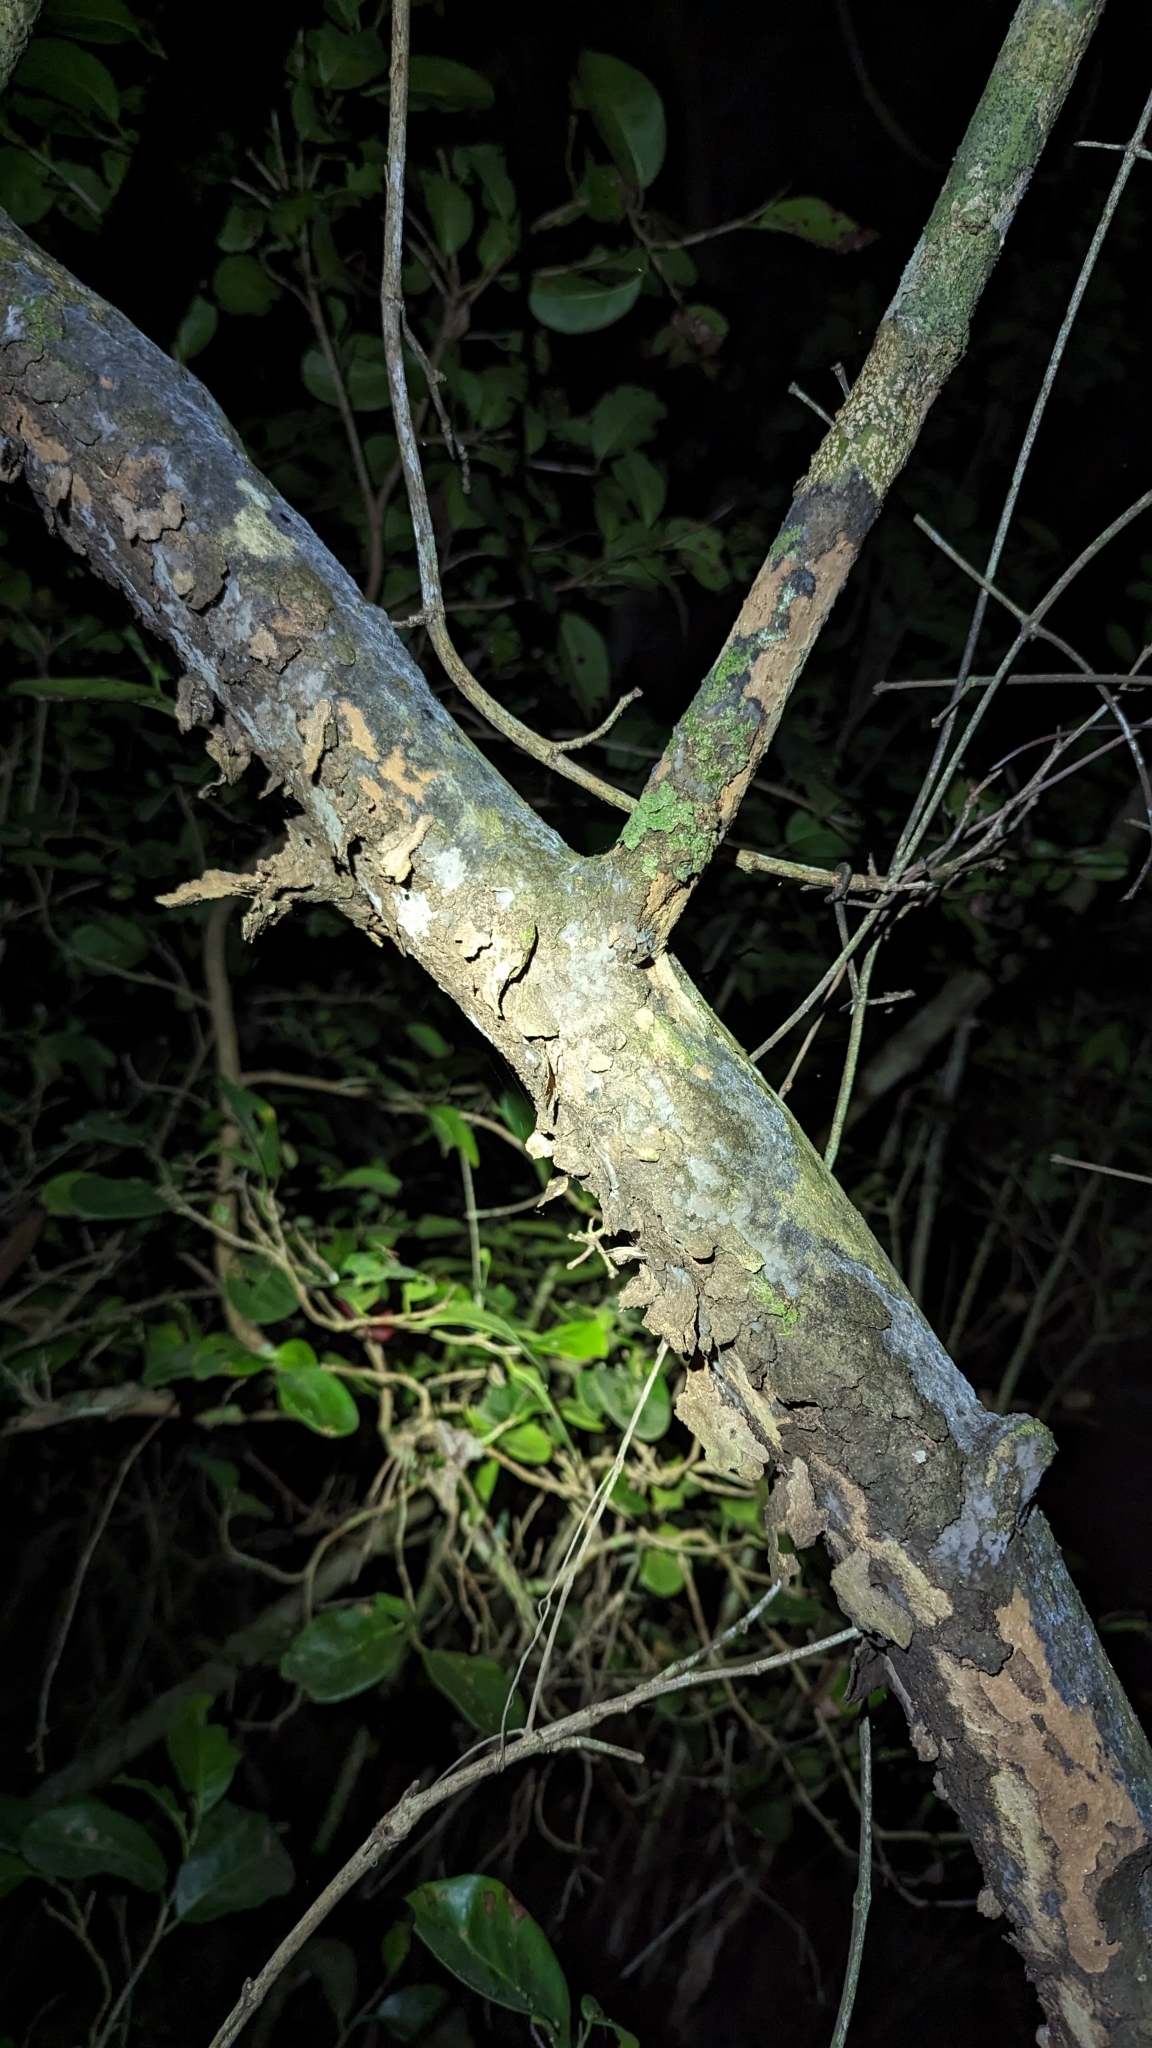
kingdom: Plantae
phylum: Tracheophyta
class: Magnoliopsida
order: Caryophyllales
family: Polygonaceae
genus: Coccoloba
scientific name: Coccoloba diversifolia
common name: Pigeon-plum
